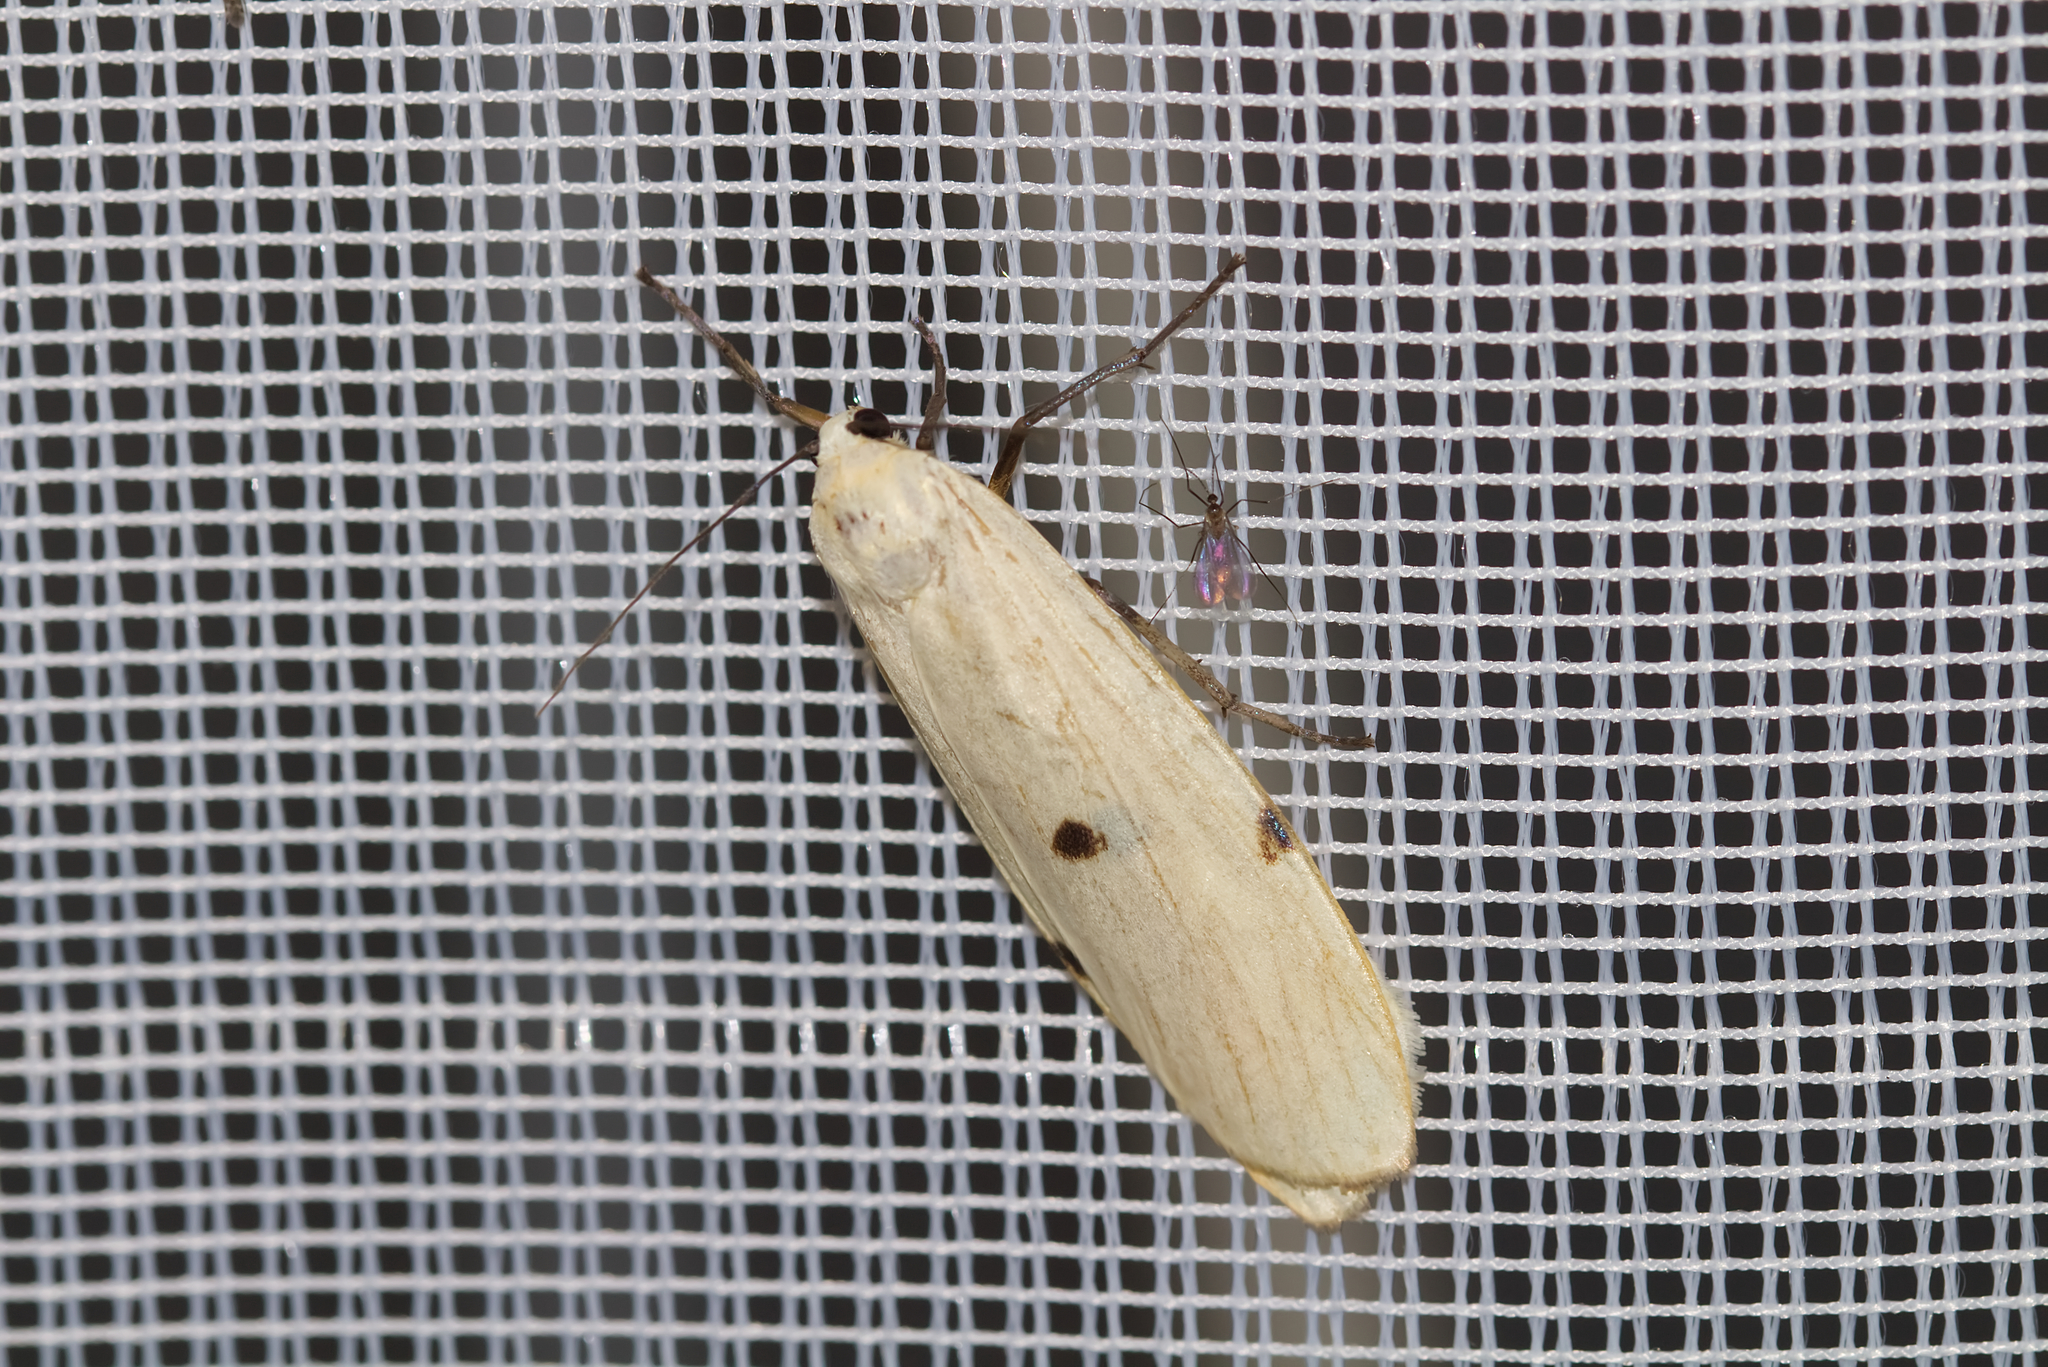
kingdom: Animalia
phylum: Arthropoda
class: Insecta
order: Lepidoptera
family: Erebidae
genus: Lithosia
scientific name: Lithosia quadra
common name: Four-spotted footman
